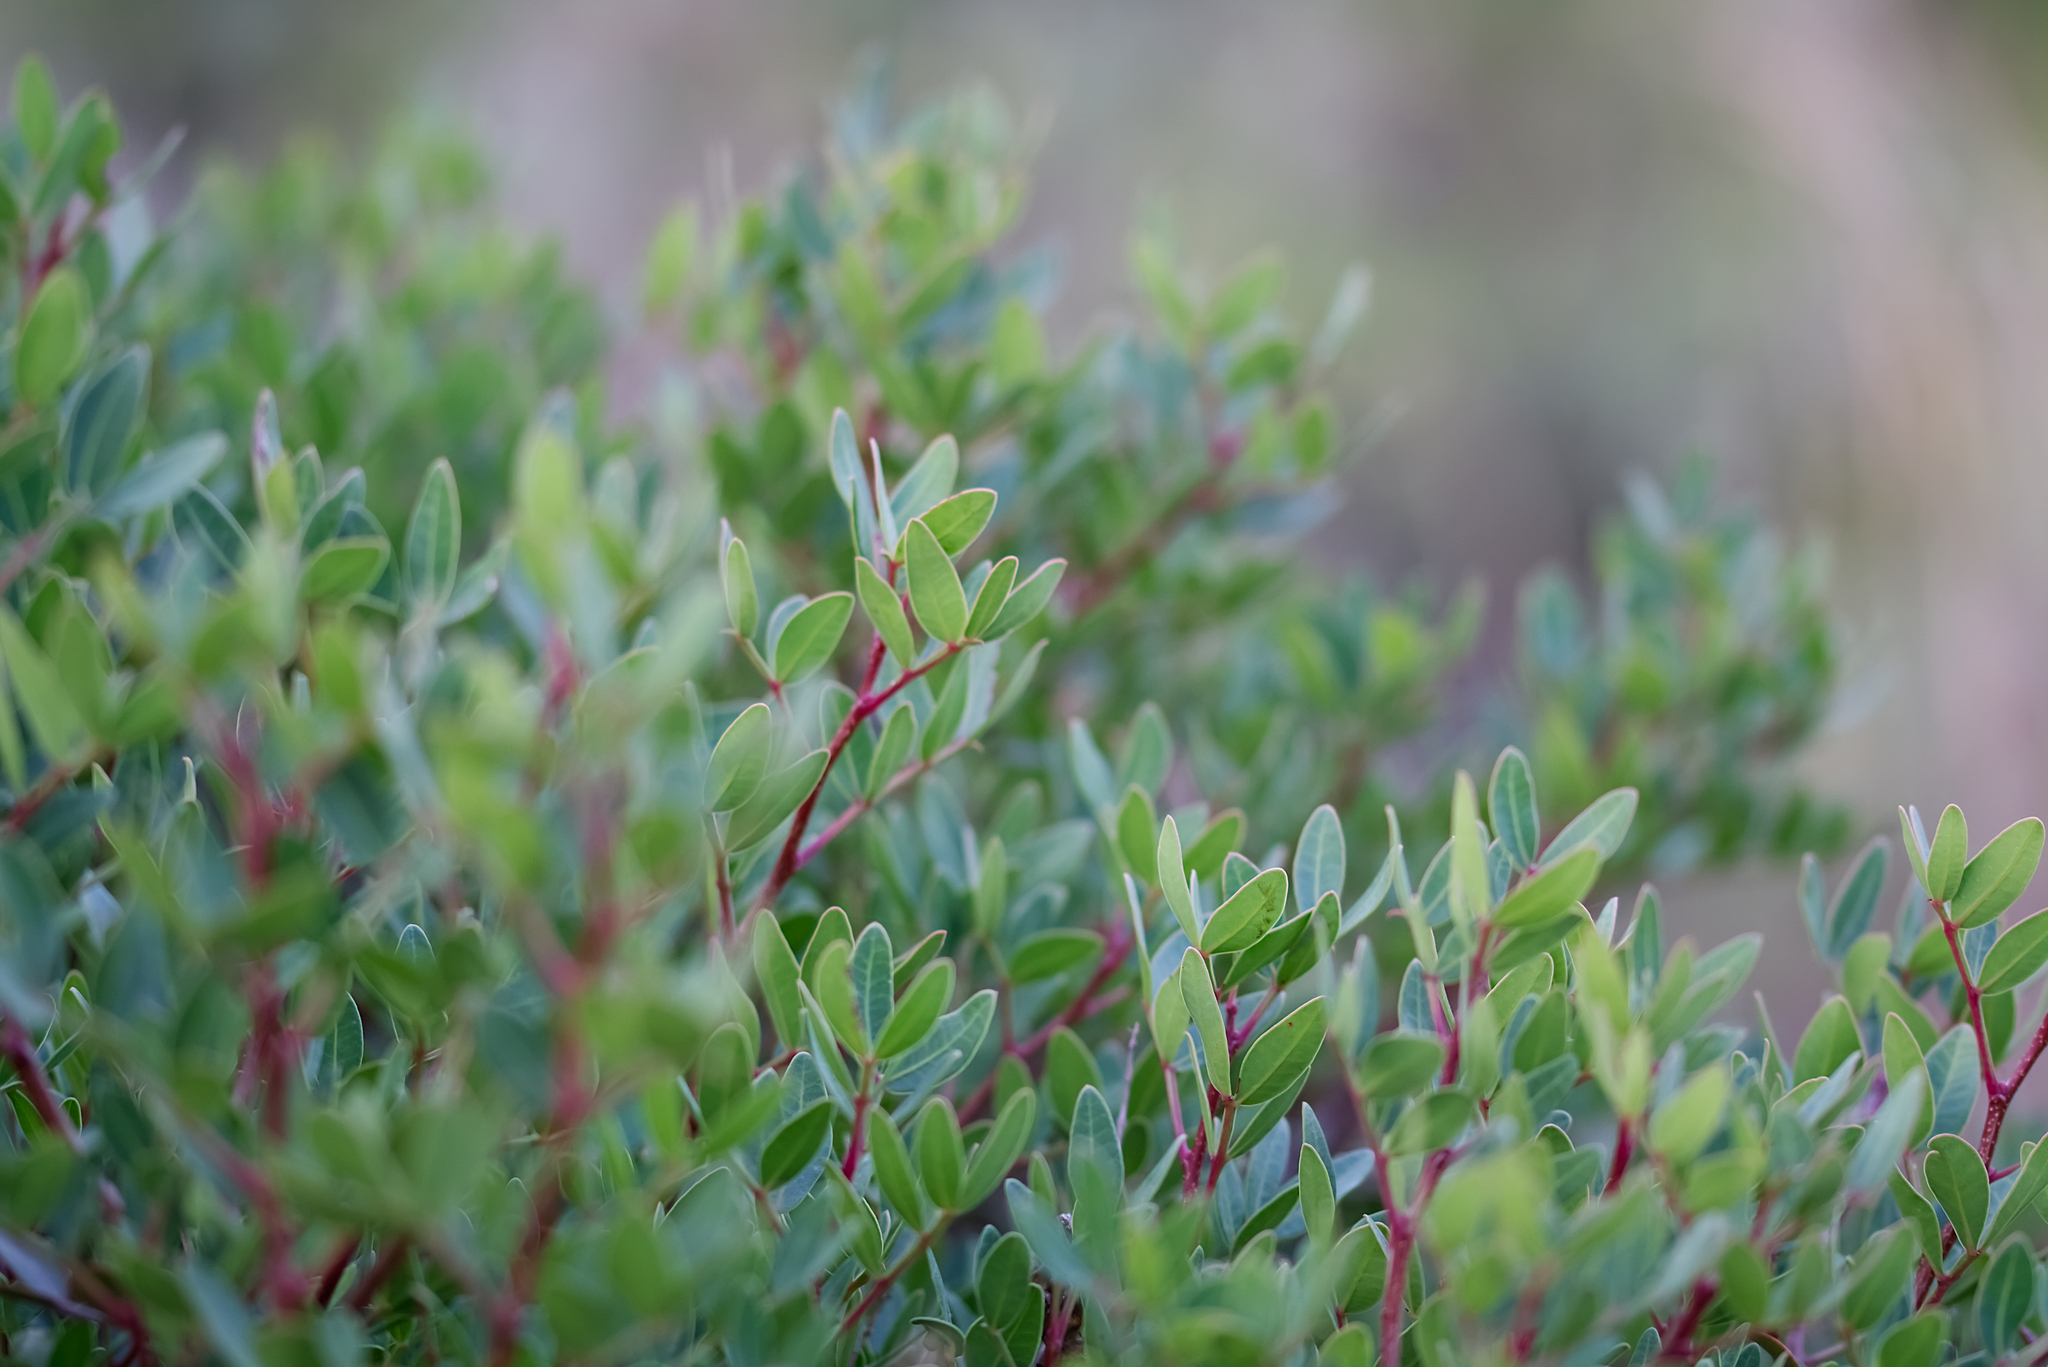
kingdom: Plantae
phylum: Tracheophyta
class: Magnoliopsida
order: Sapindales
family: Anacardiaceae
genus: Pistacia
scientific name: Pistacia lentiscus
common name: Lentisk
